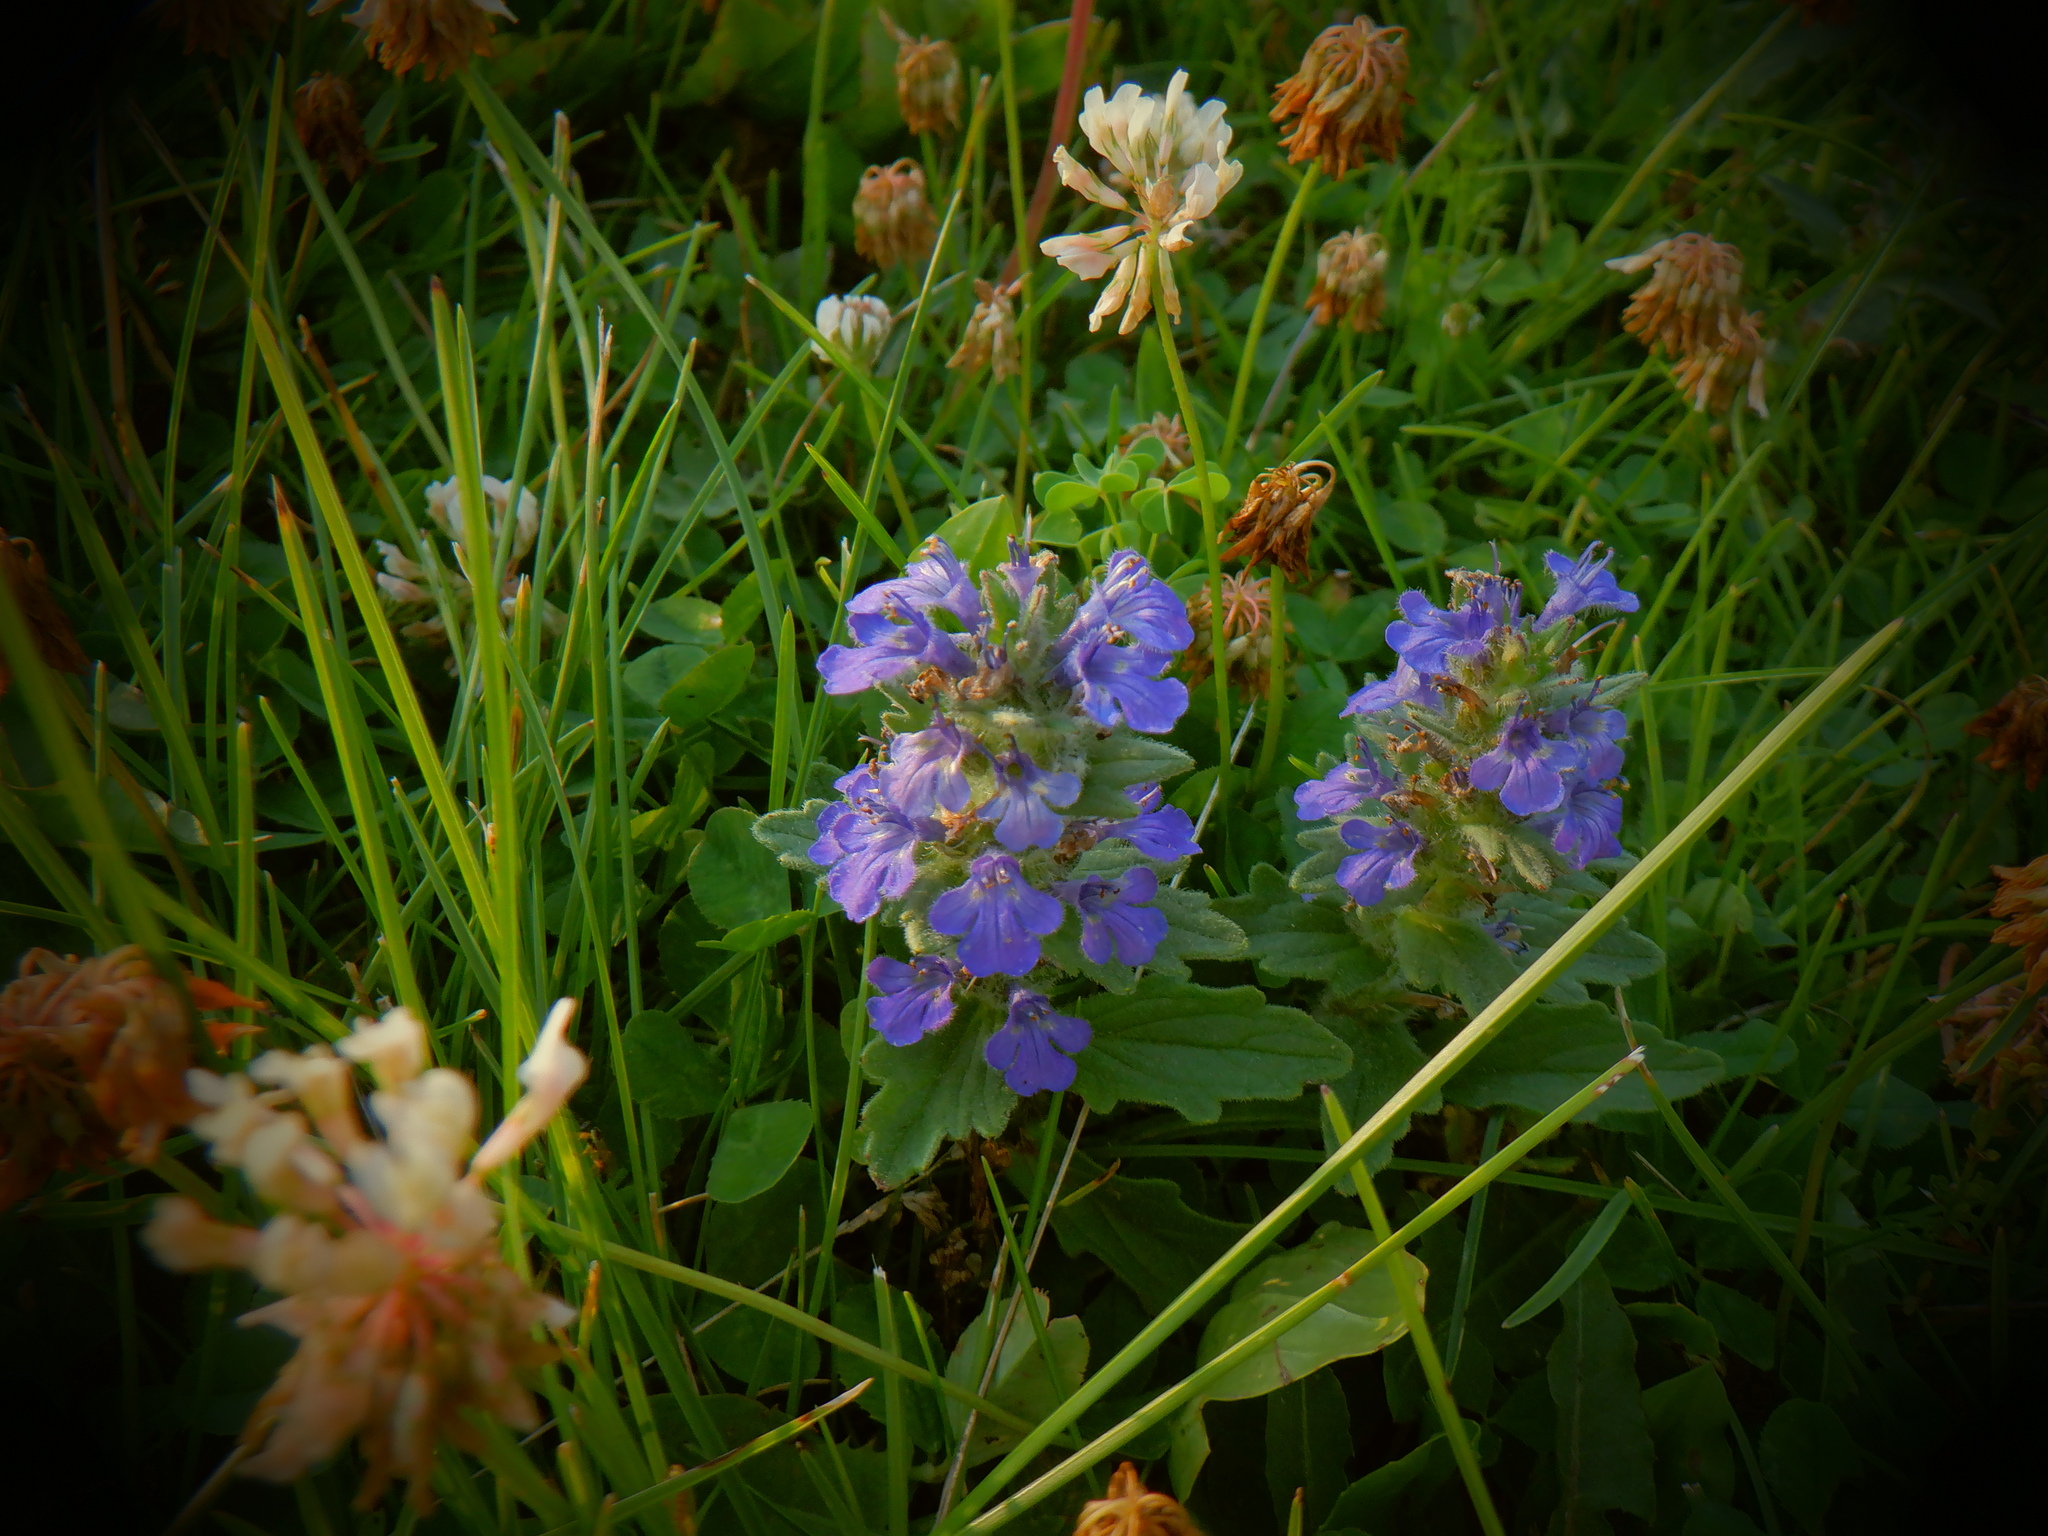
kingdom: Plantae
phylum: Tracheophyta
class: Magnoliopsida
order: Lamiales
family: Lamiaceae
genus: Ajuga
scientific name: Ajuga reptans
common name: Bugle
